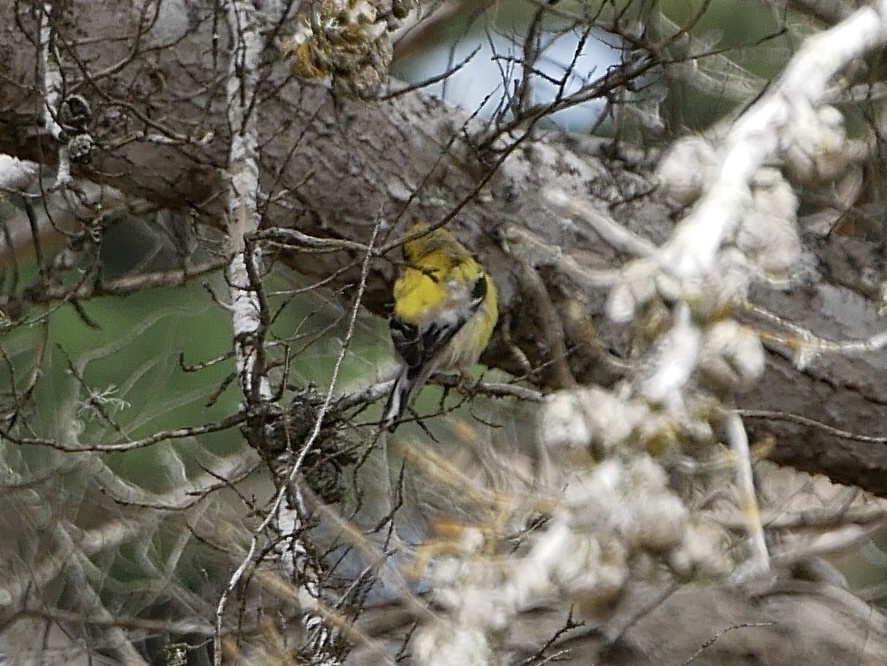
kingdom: Animalia
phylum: Chordata
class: Aves
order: Passeriformes
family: Fringillidae
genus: Spinus
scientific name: Spinus tristis
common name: American goldfinch
